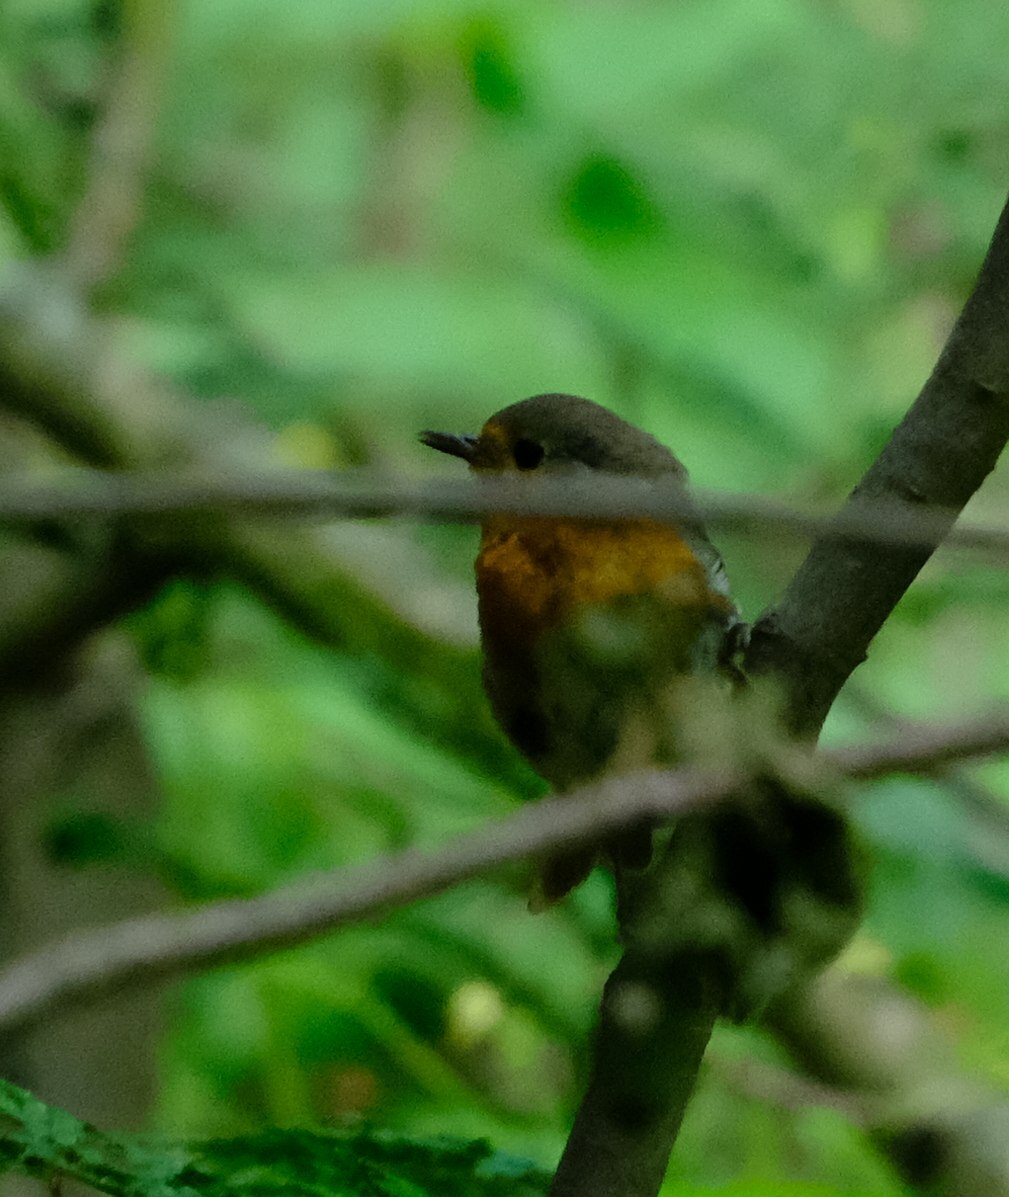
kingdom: Animalia
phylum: Chordata
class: Aves
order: Passeriformes
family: Muscicapidae
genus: Erithacus
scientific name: Erithacus rubecula
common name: European robin
